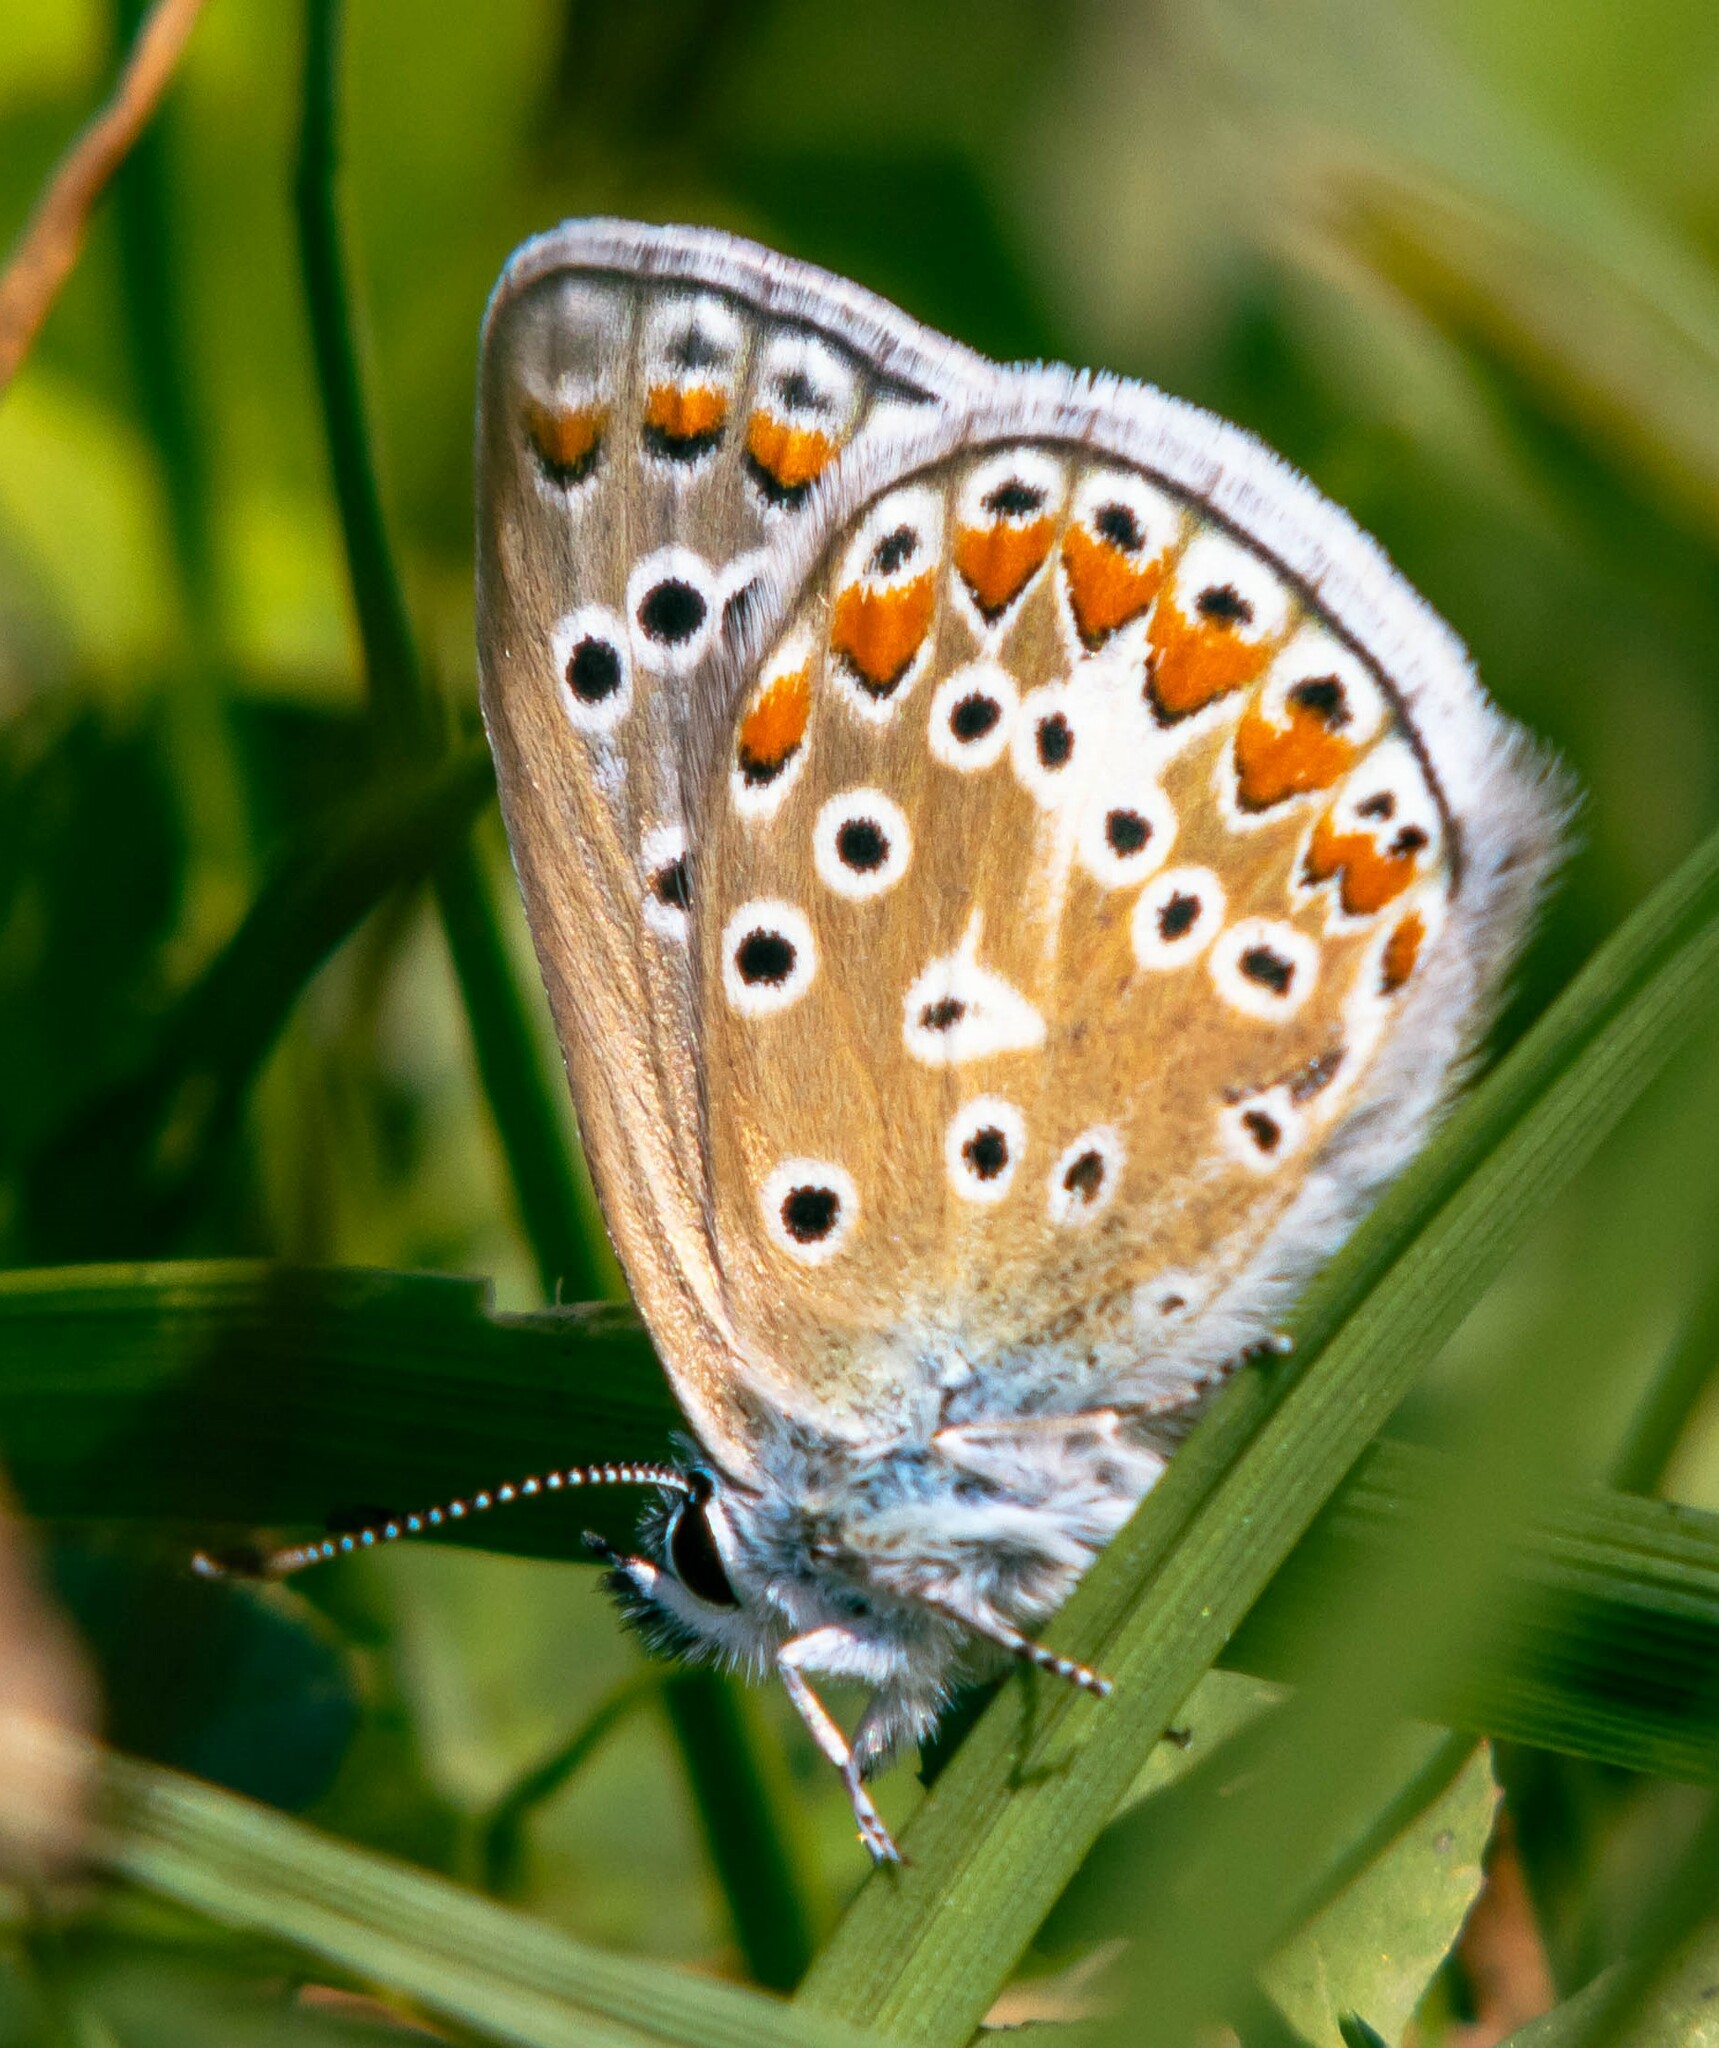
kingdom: Animalia
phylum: Arthropoda
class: Insecta
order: Lepidoptera
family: Lycaenidae
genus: Polyommatus
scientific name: Polyommatus icarus
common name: Common blue
